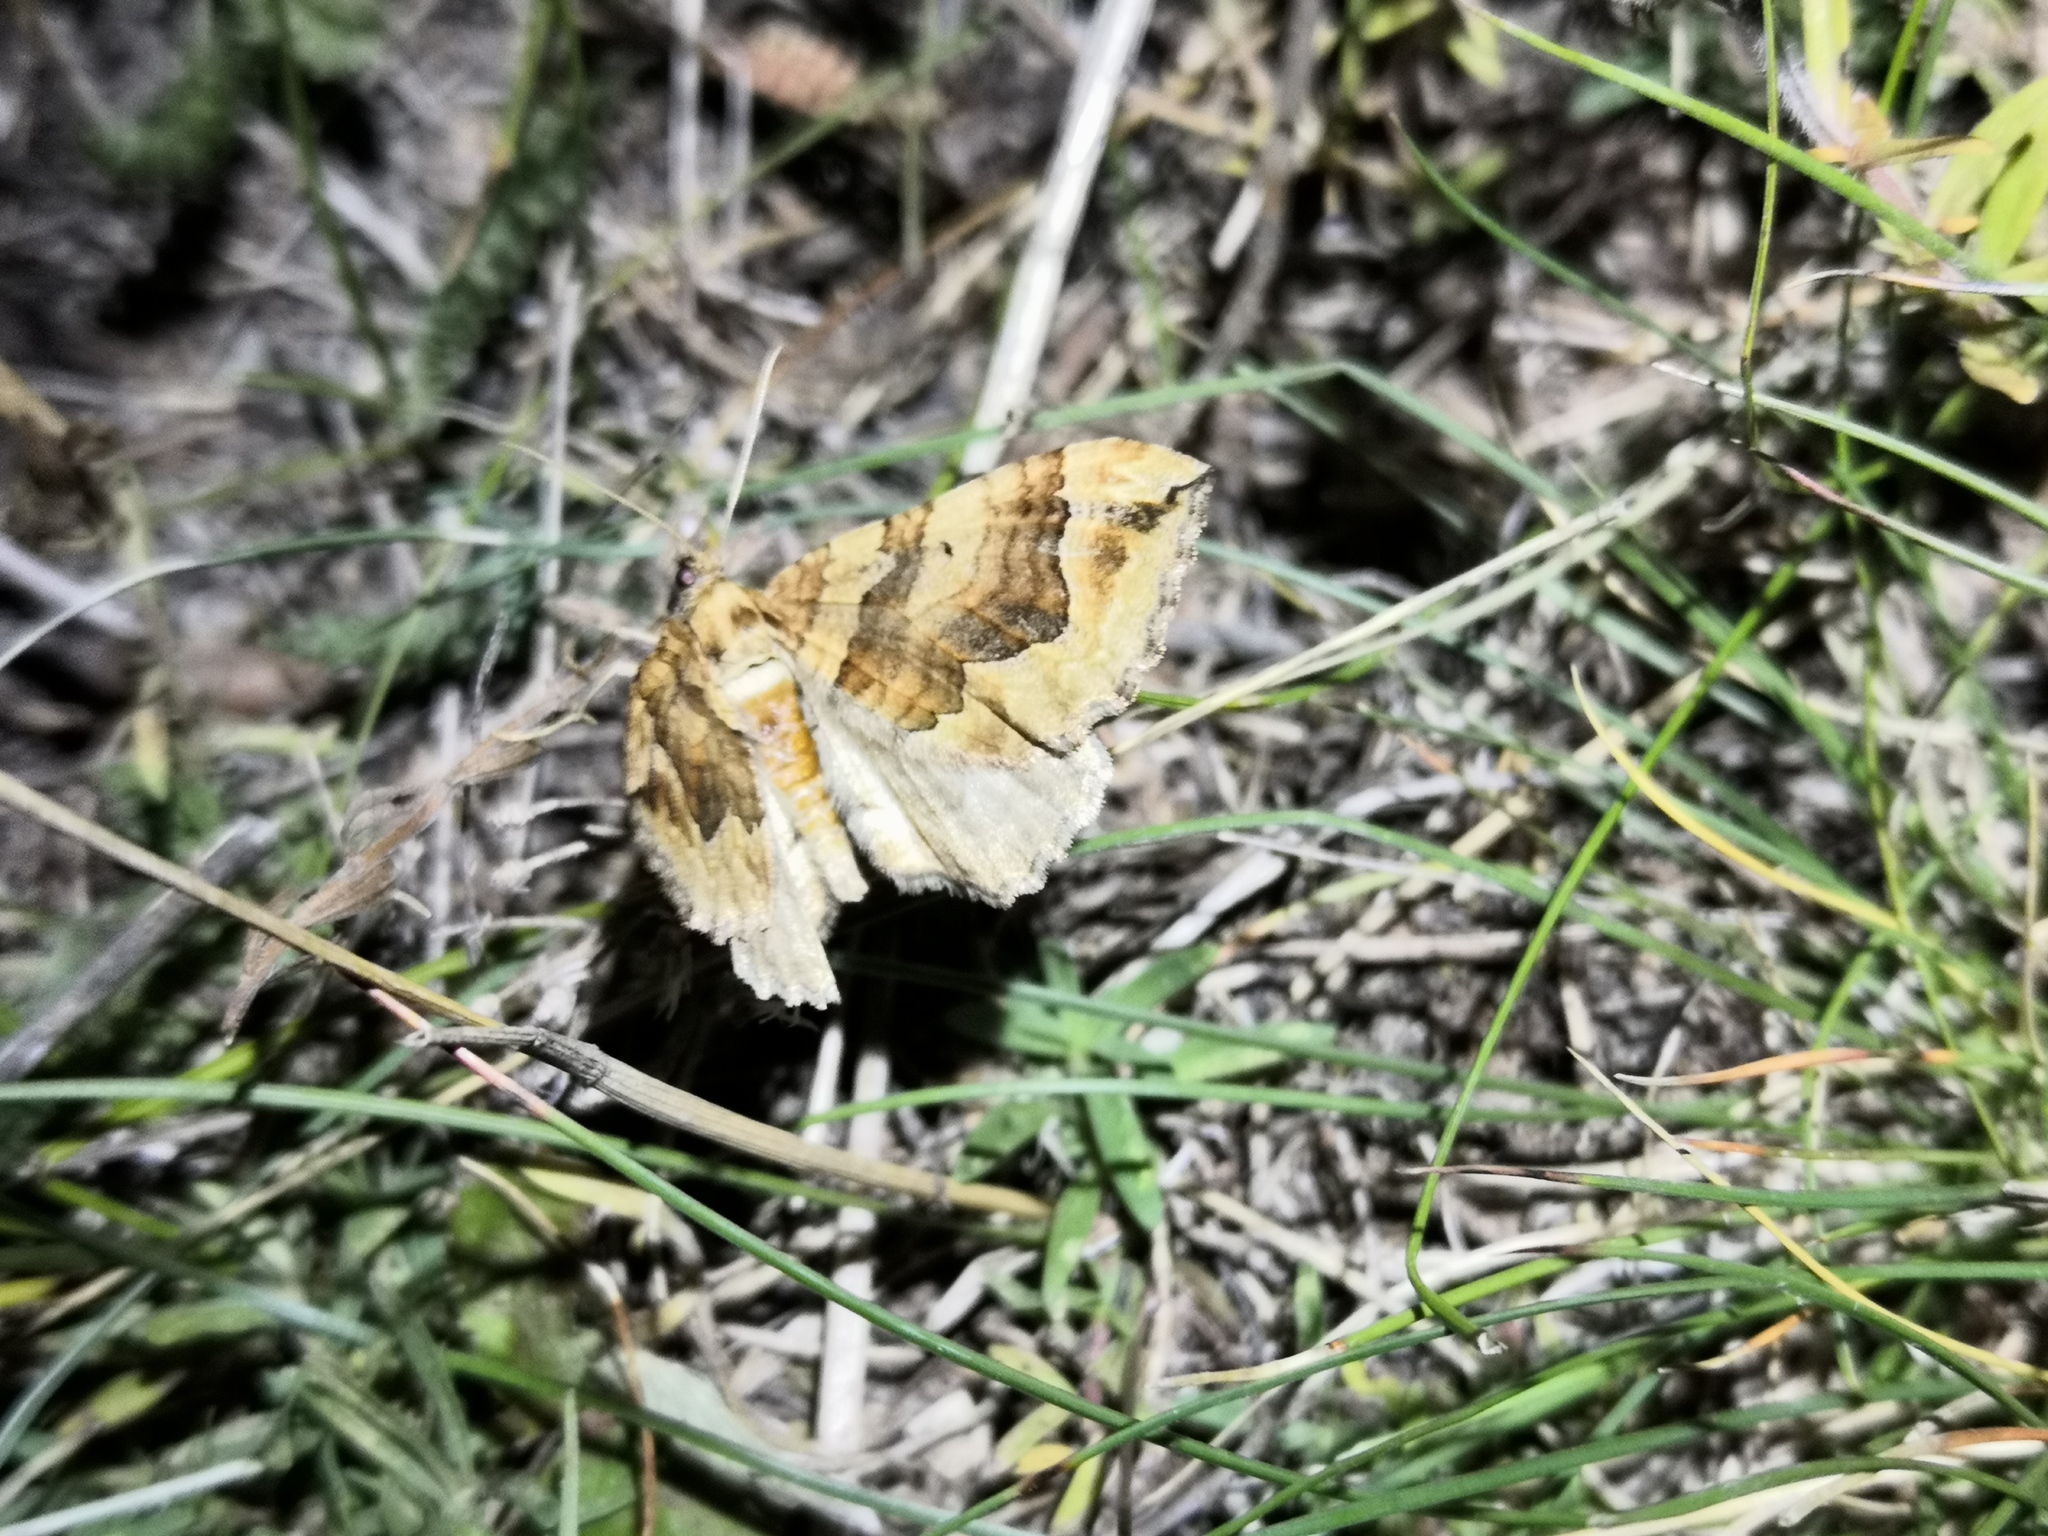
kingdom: Animalia
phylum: Arthropoda
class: Insecta
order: Lepidoptera
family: Geometridae
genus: Pelurga
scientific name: Pelurga comitata
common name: Dark spinach
